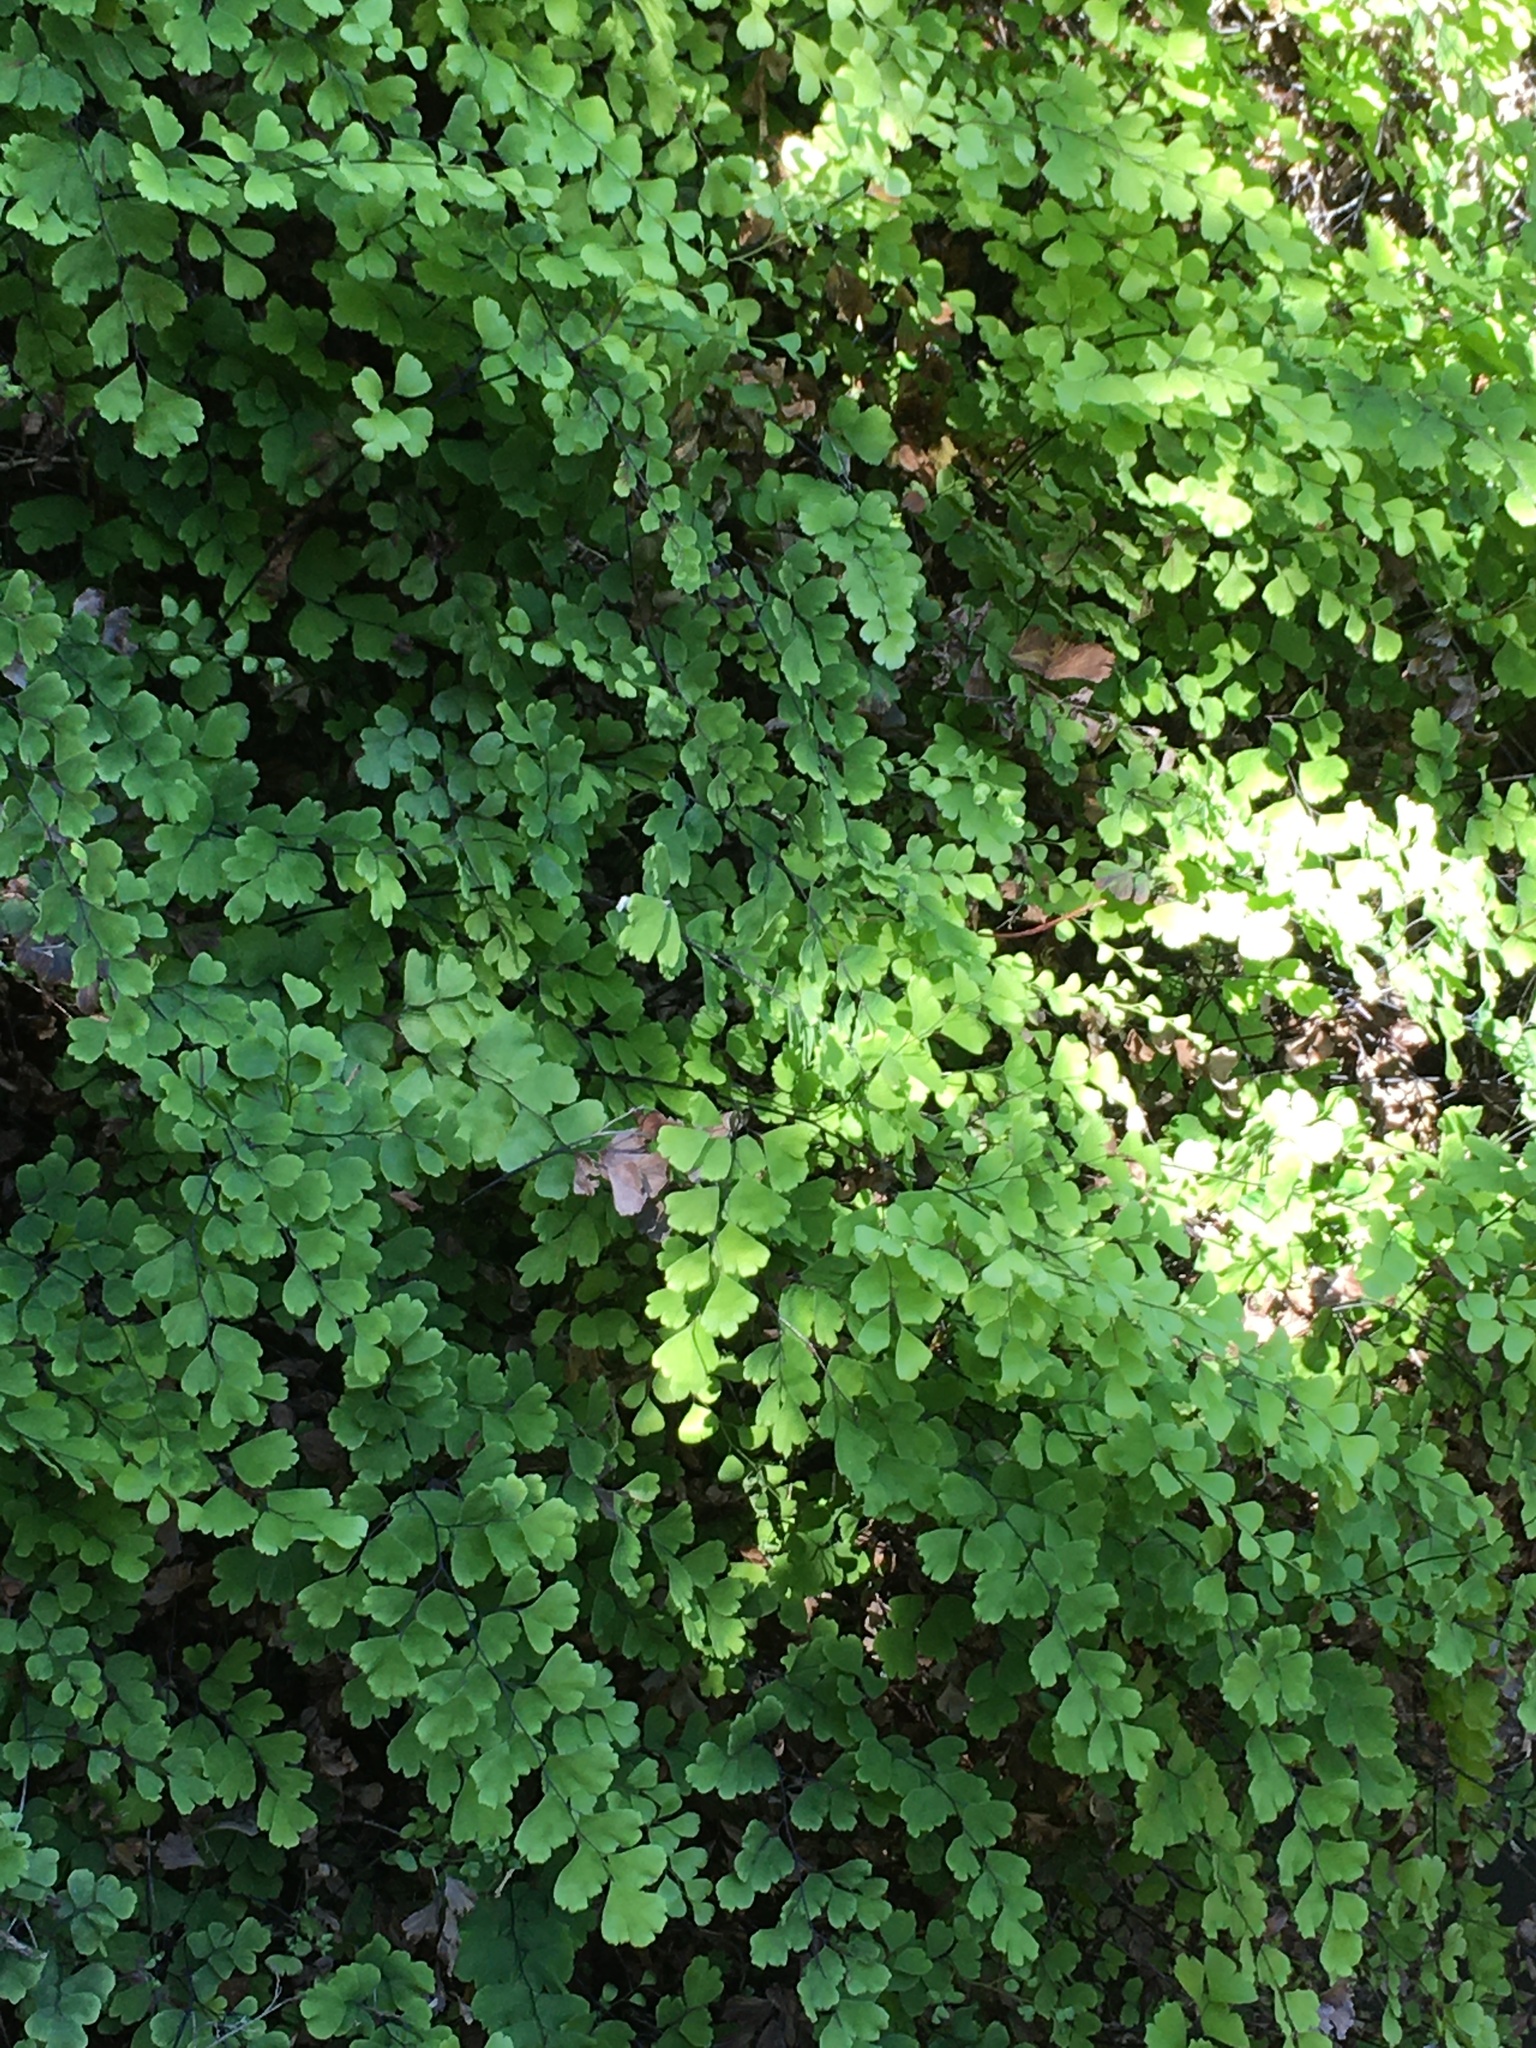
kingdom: Plantae
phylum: Tracheophyta
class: Polypodiopsida
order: Polypodiales
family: Pteridaceae
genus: Adiantum
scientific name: Adiantum capillus-veneris
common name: Maidenhair fern
